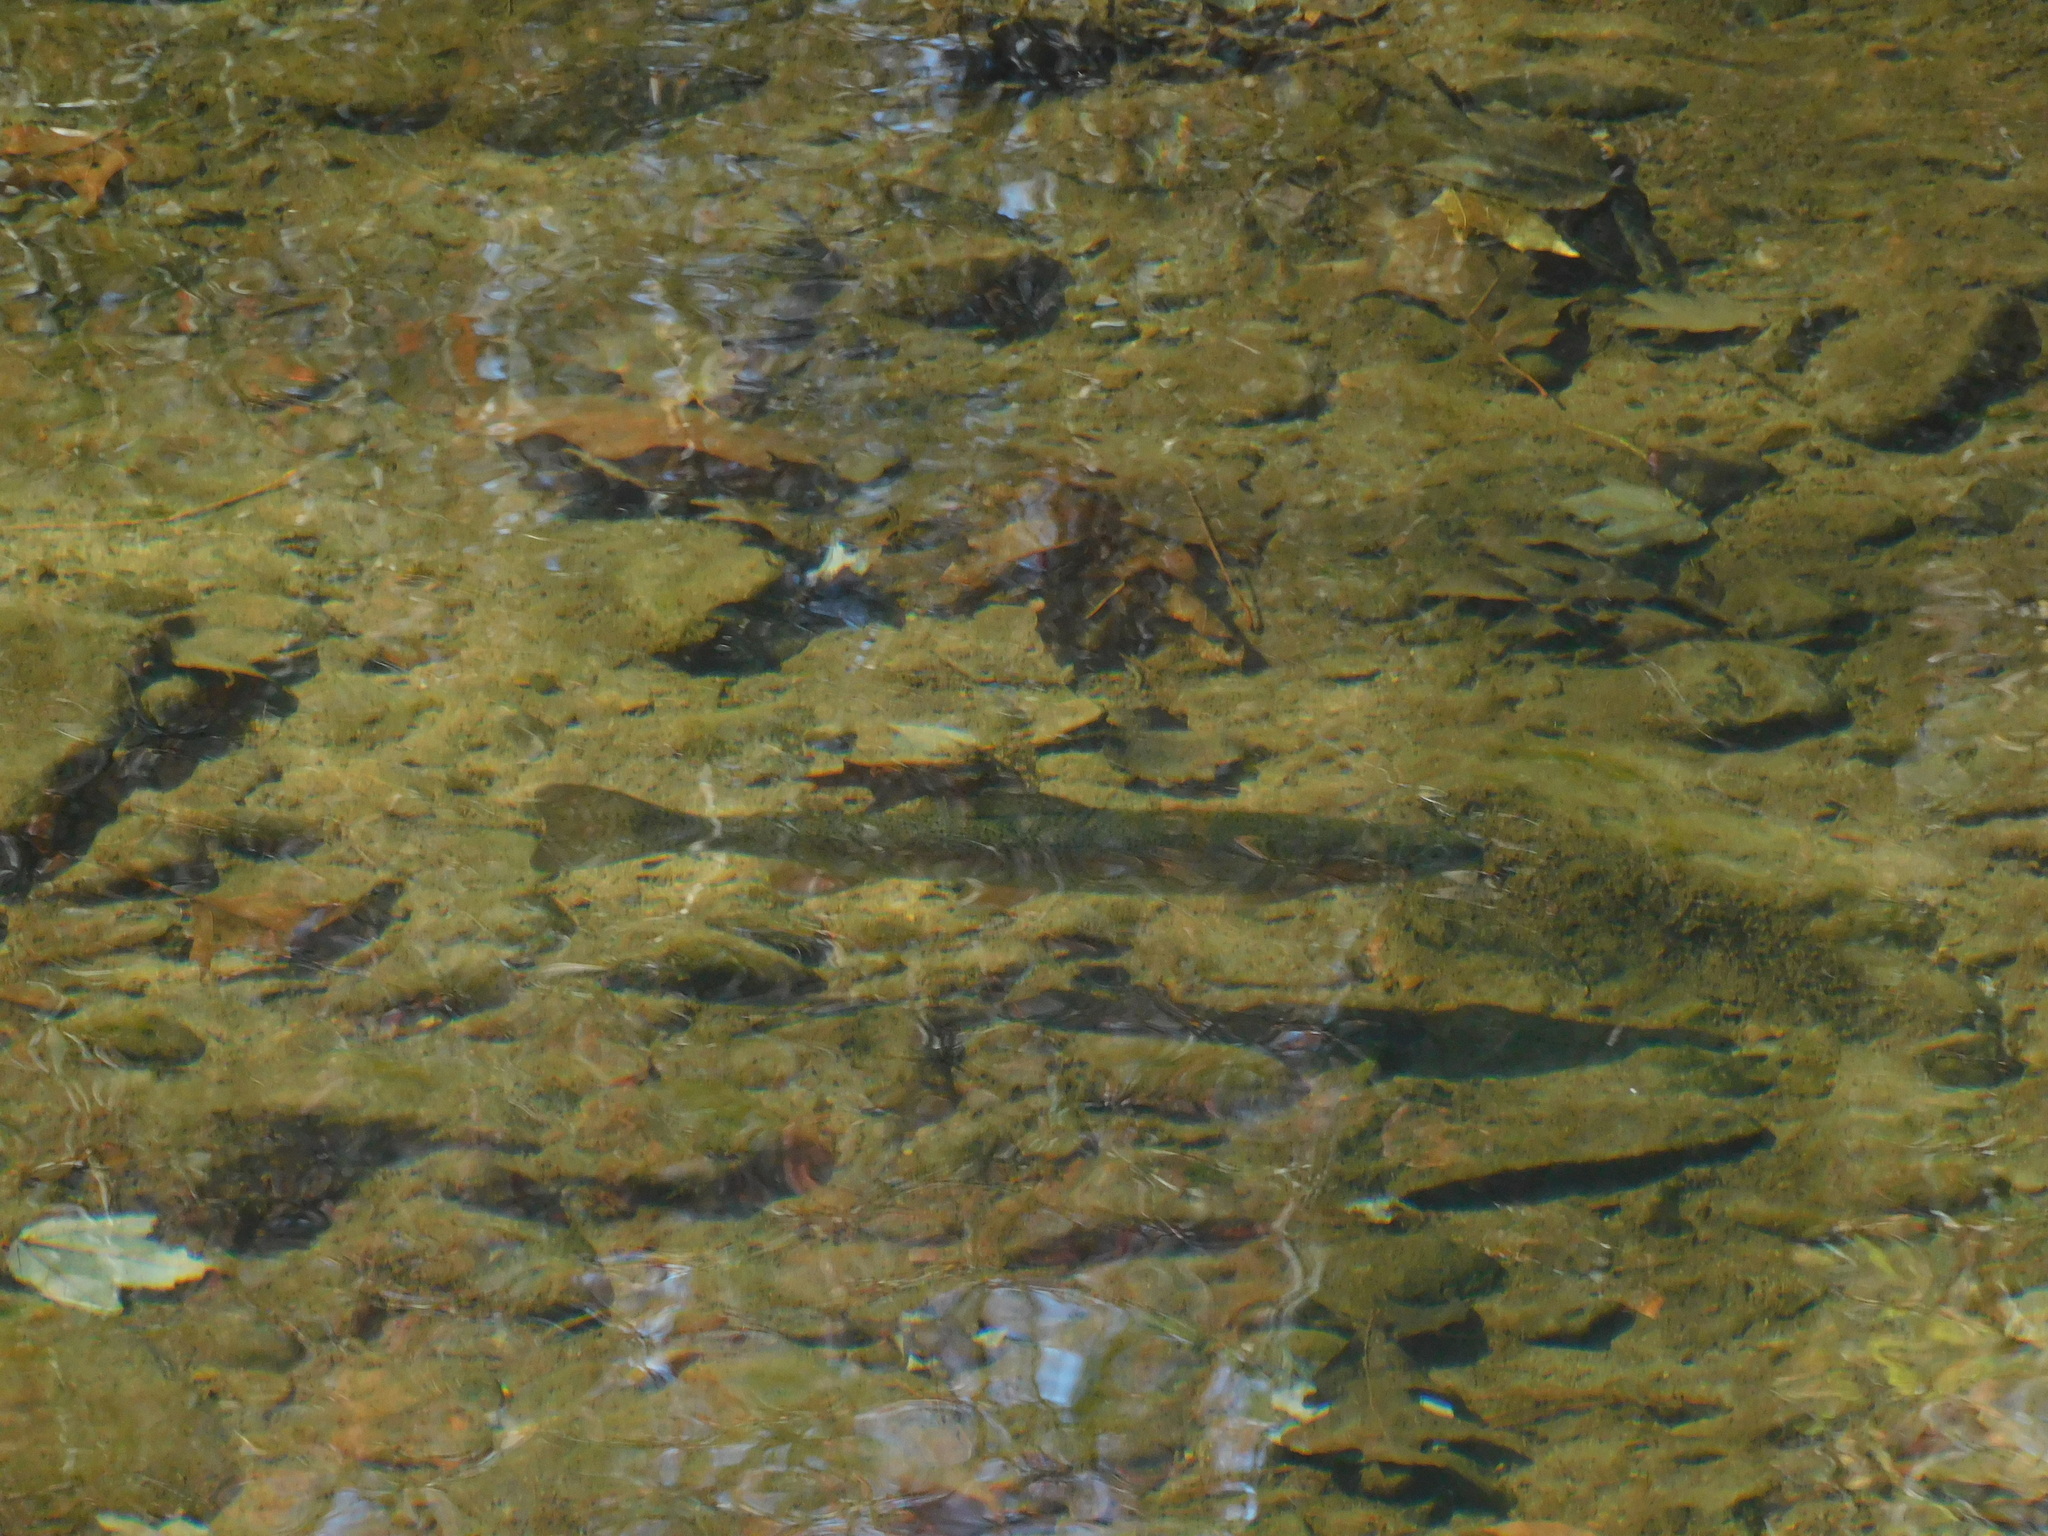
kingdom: Animalia
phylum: Chordata
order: Salmoniformes
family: Salmonidae
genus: Oncorhynchus
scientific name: Oncorhynchus mykiss
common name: Rainbow trout
